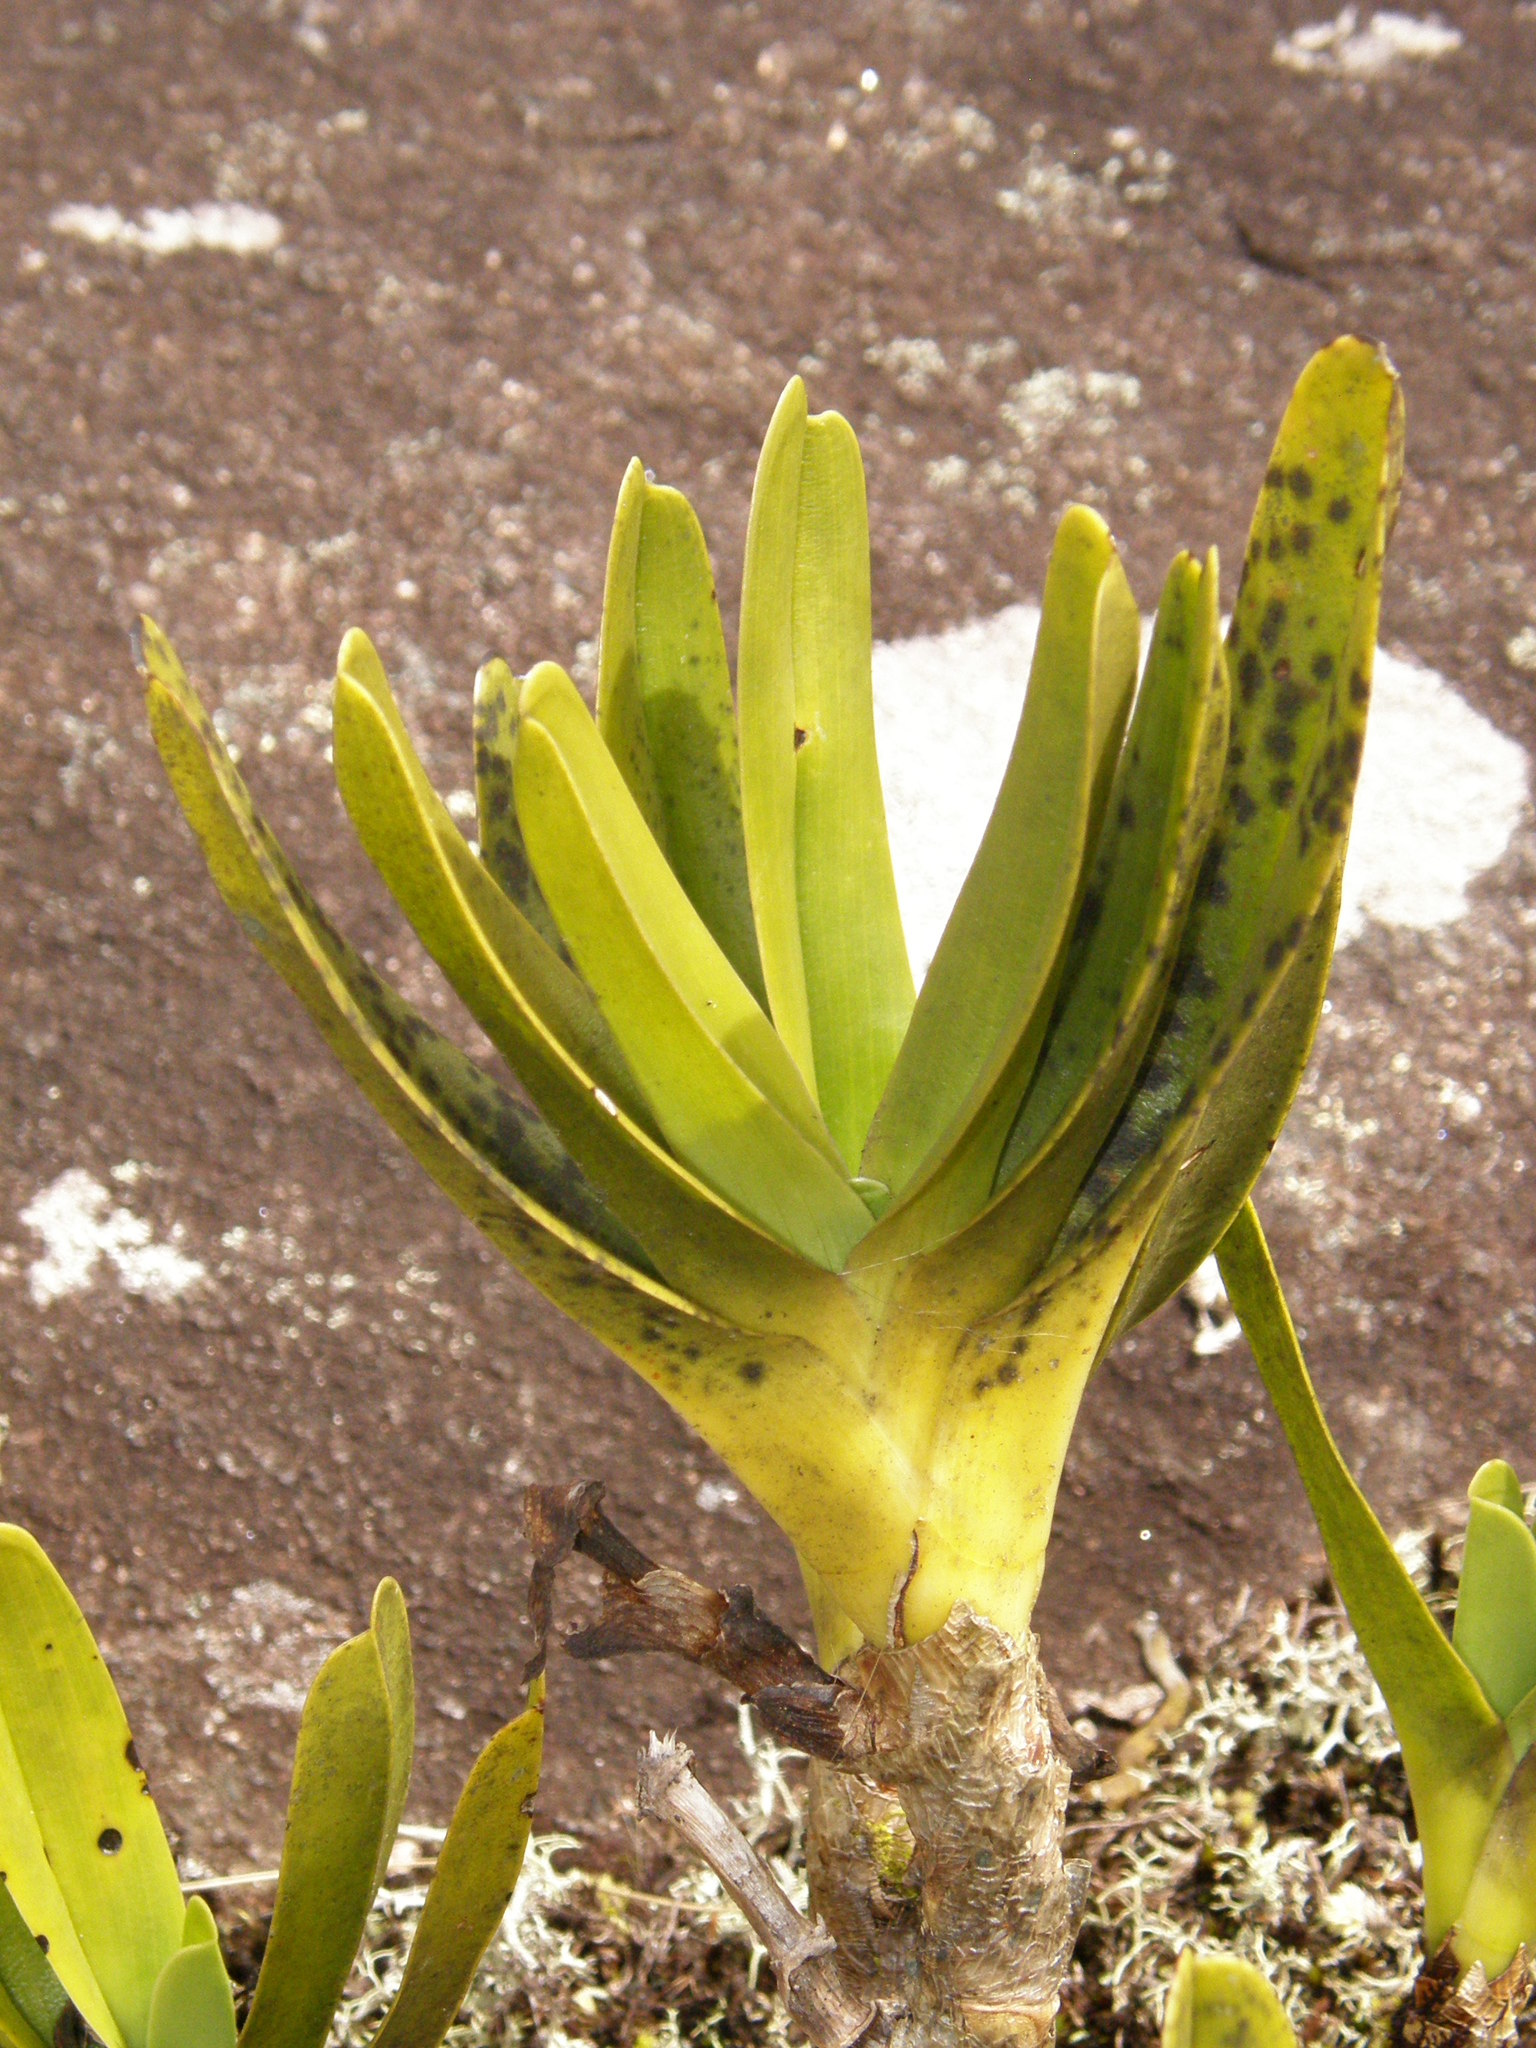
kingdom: Plantae
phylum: Tracheophyta
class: Liliopsida
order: Asparagales
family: Orchidaceae
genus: Angraecum
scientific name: Angraecum sororium
